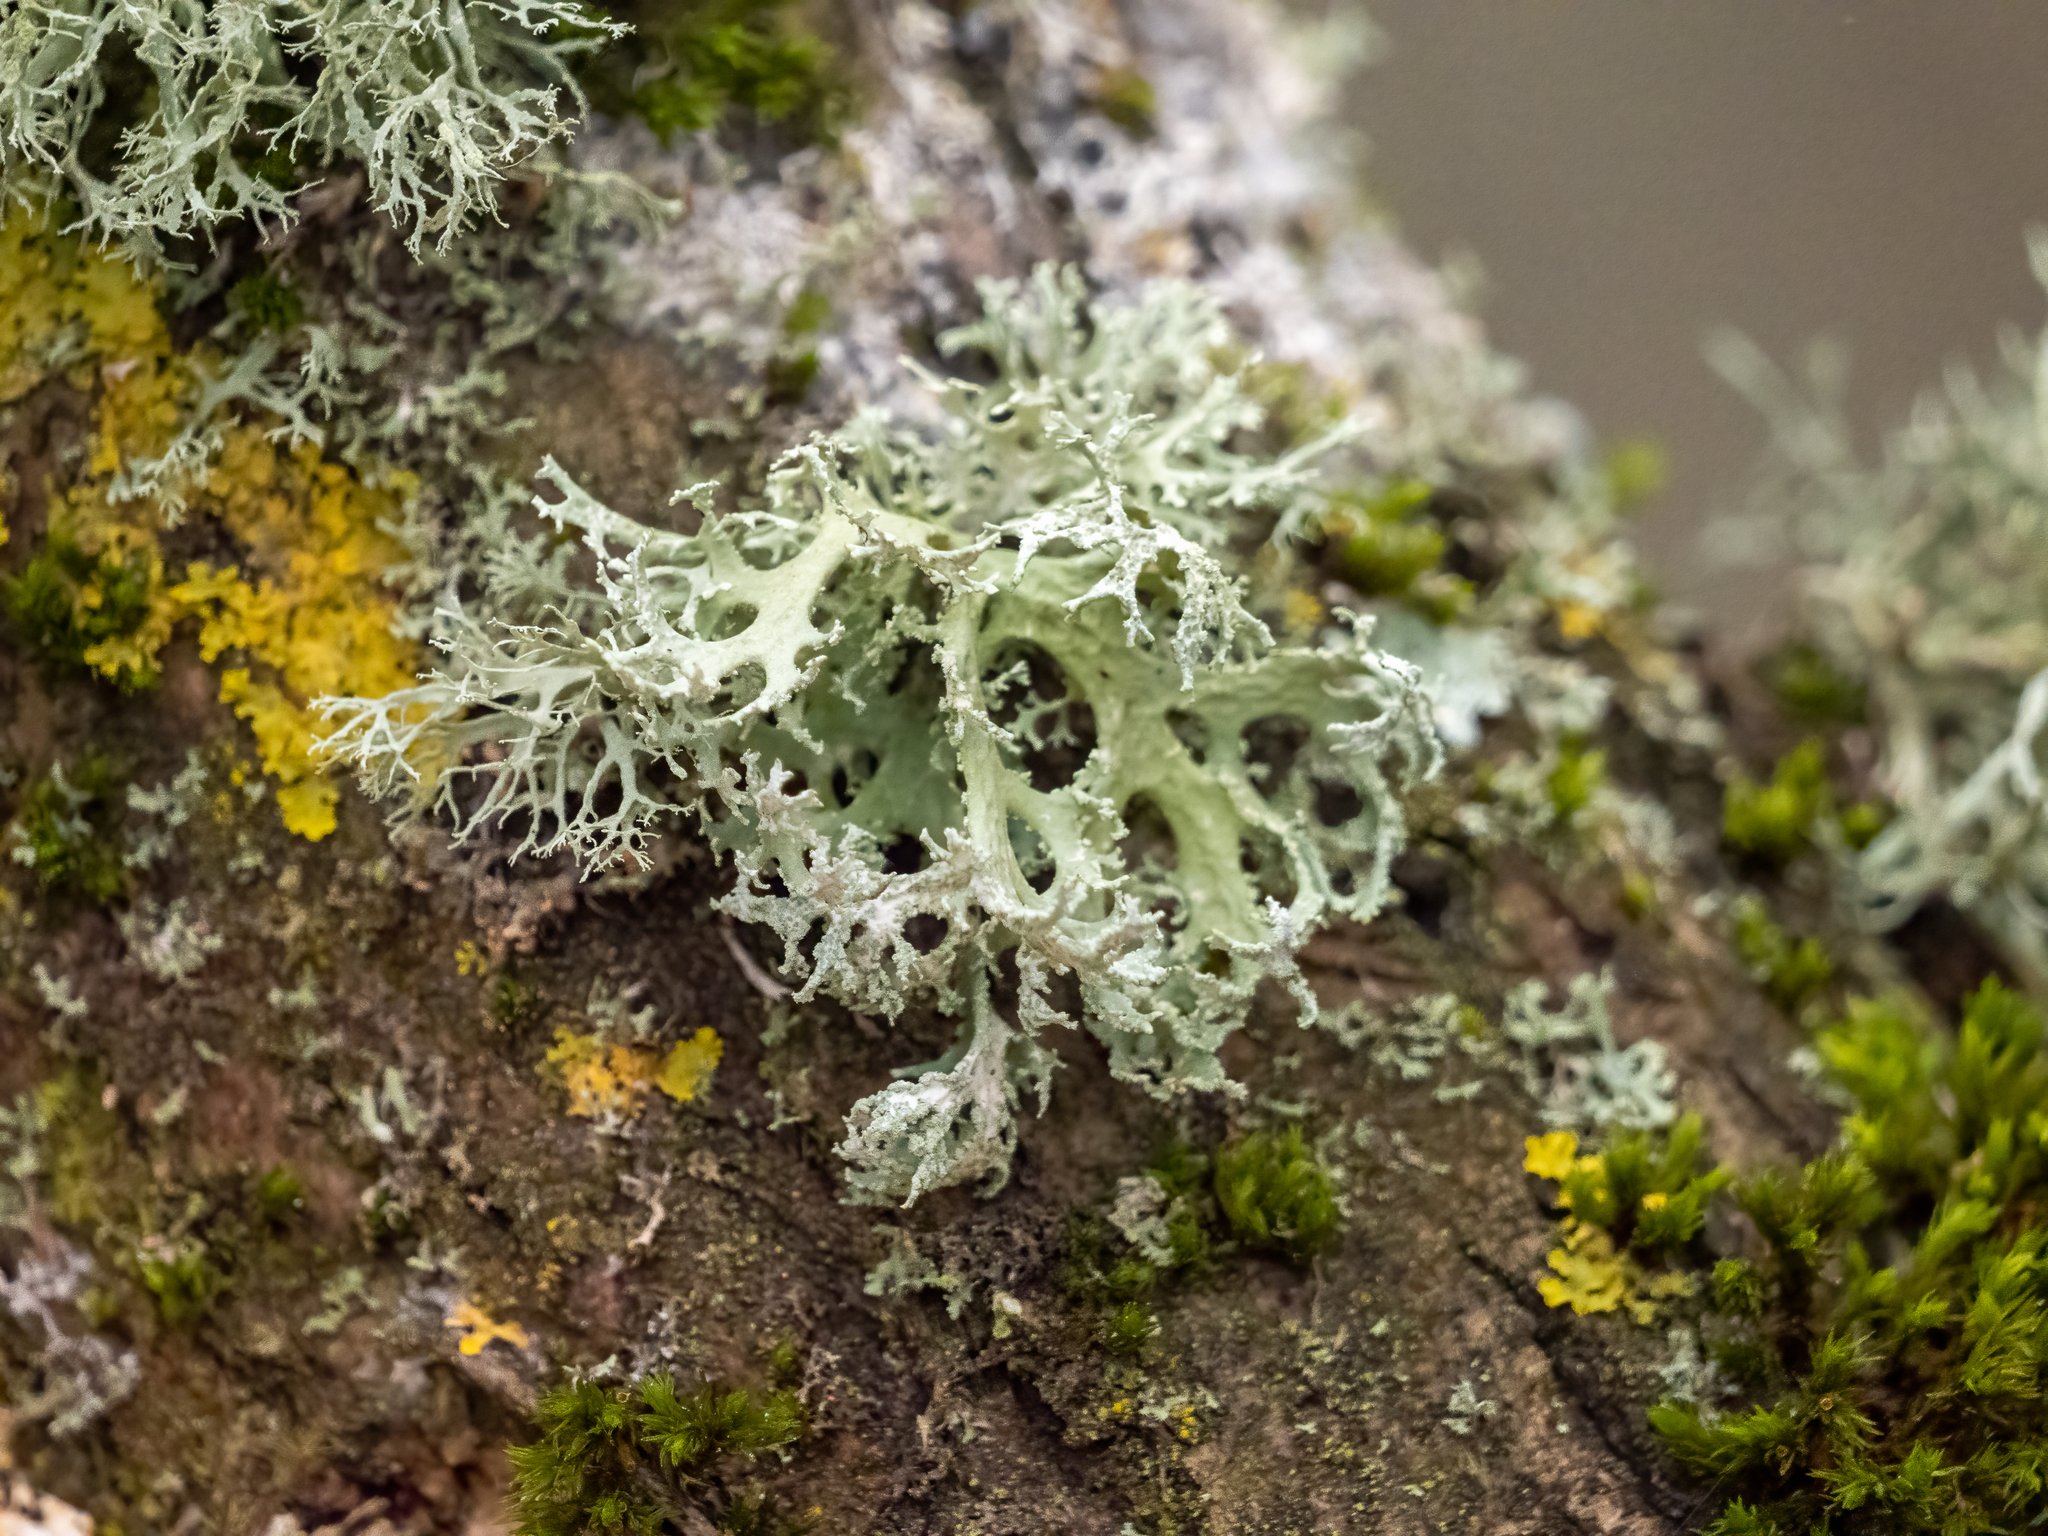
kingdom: Fungi
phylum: Ascomycota
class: Lecanoromycetes
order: Lecanorales
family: Parmeliaceae
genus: Evernia
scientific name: Evernia prunastri
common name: Oak moss
